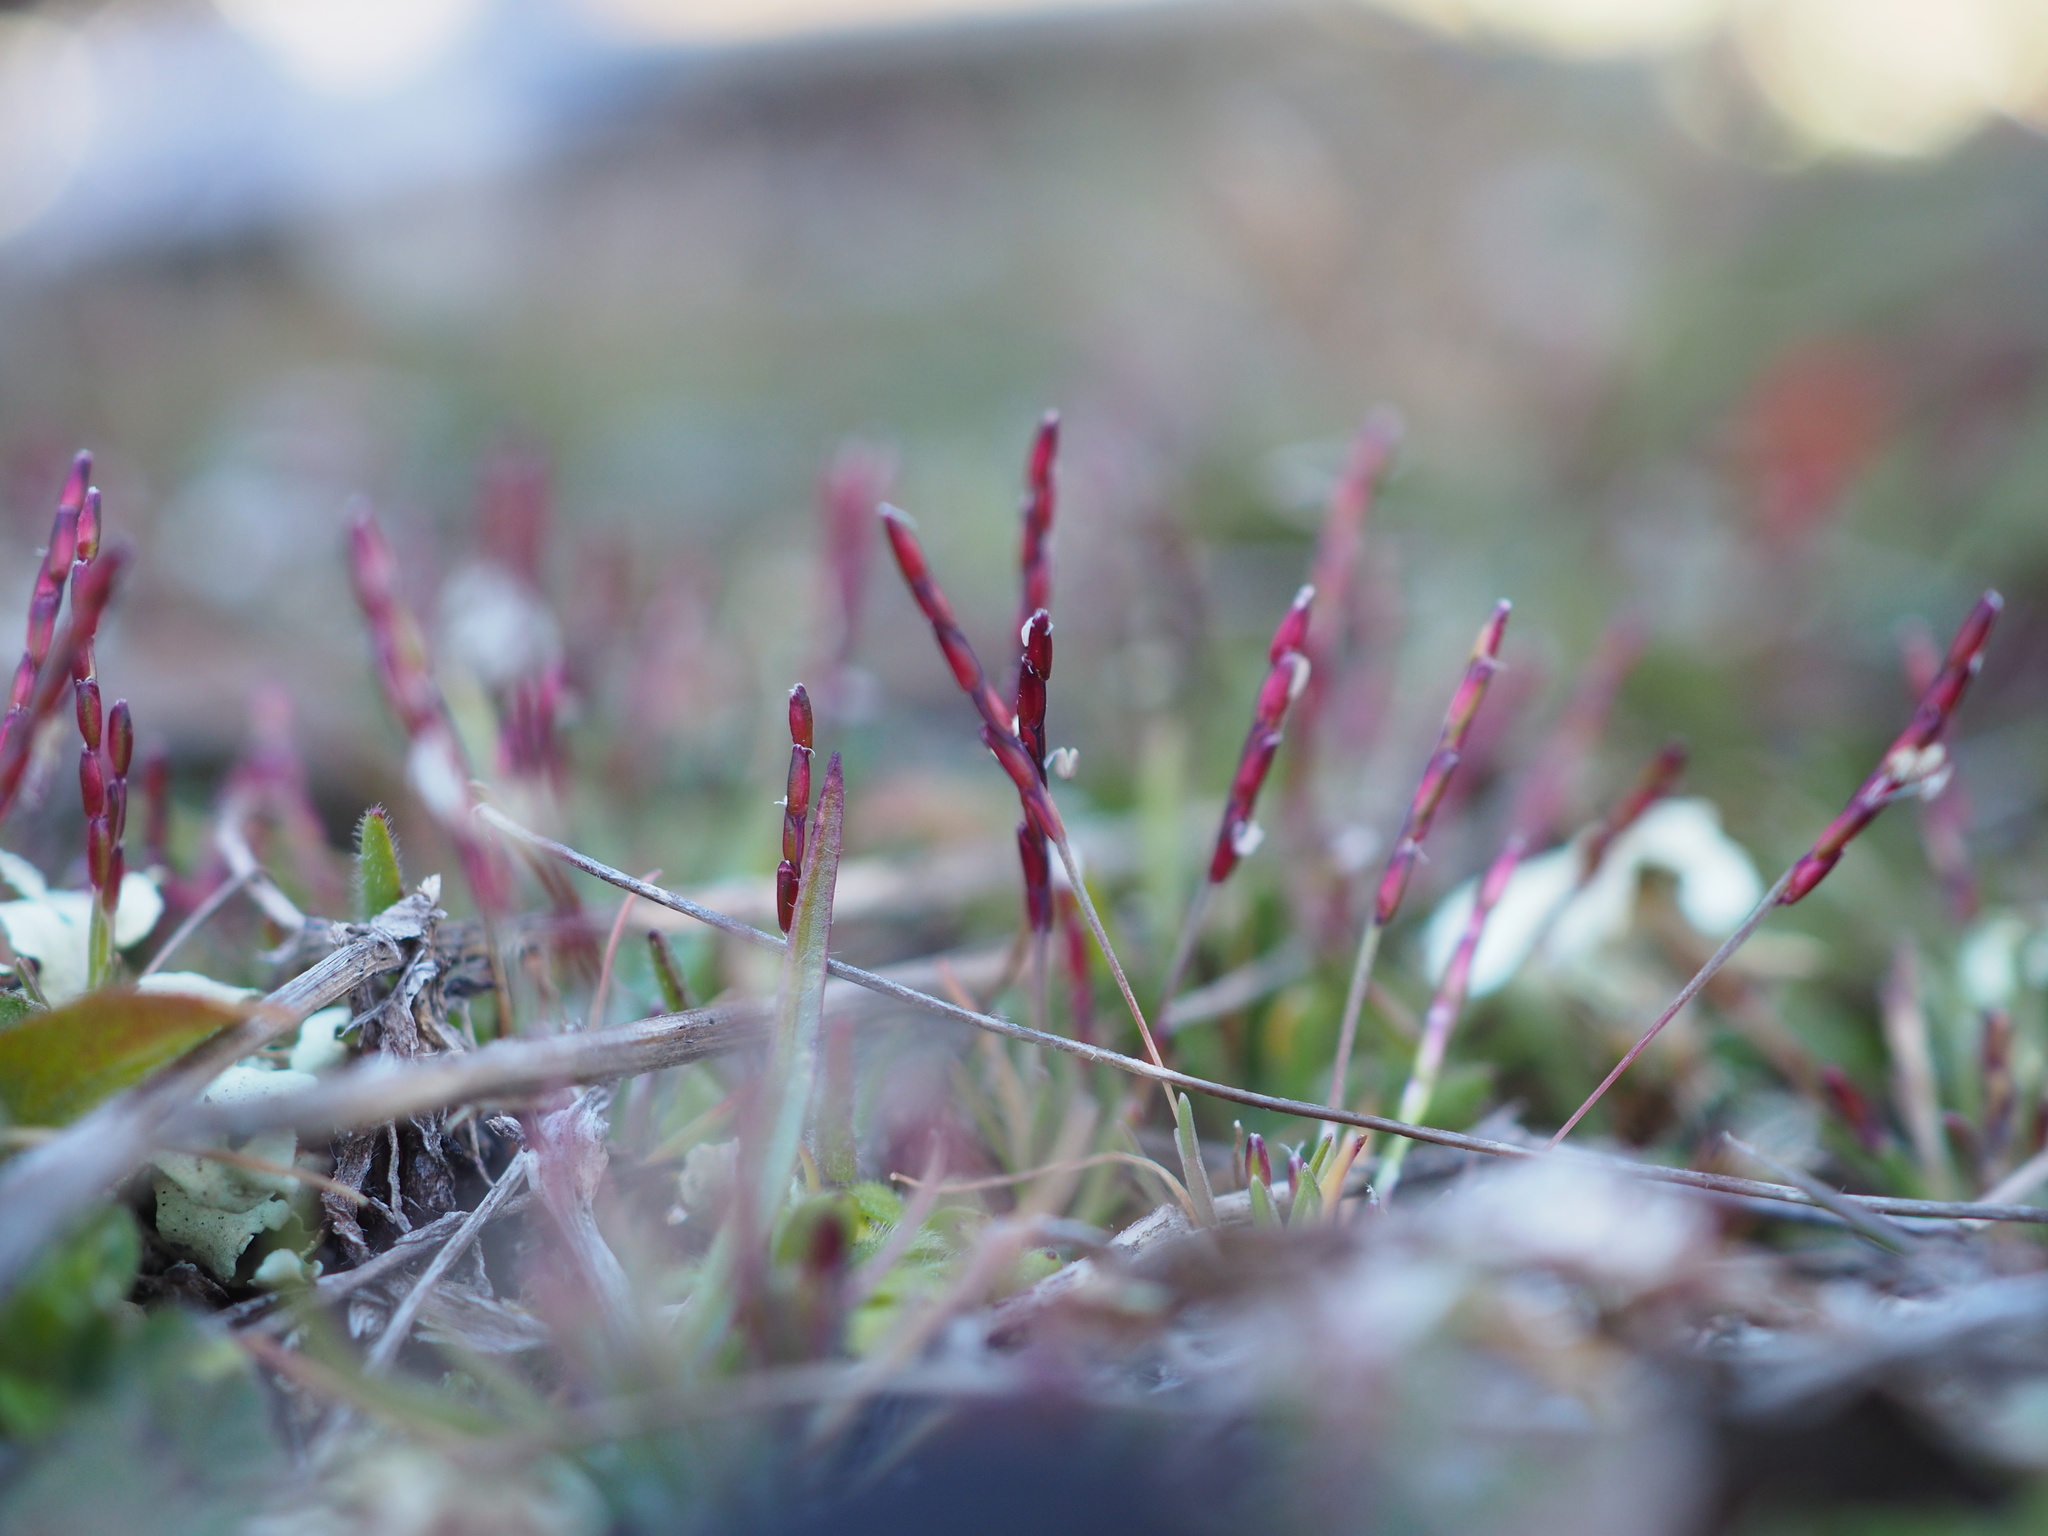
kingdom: Plantae
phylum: Tracheophyta
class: Liliopsida
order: Poales
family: Poaceae
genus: Mibora
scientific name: Mibora minima
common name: Early sand-grass
